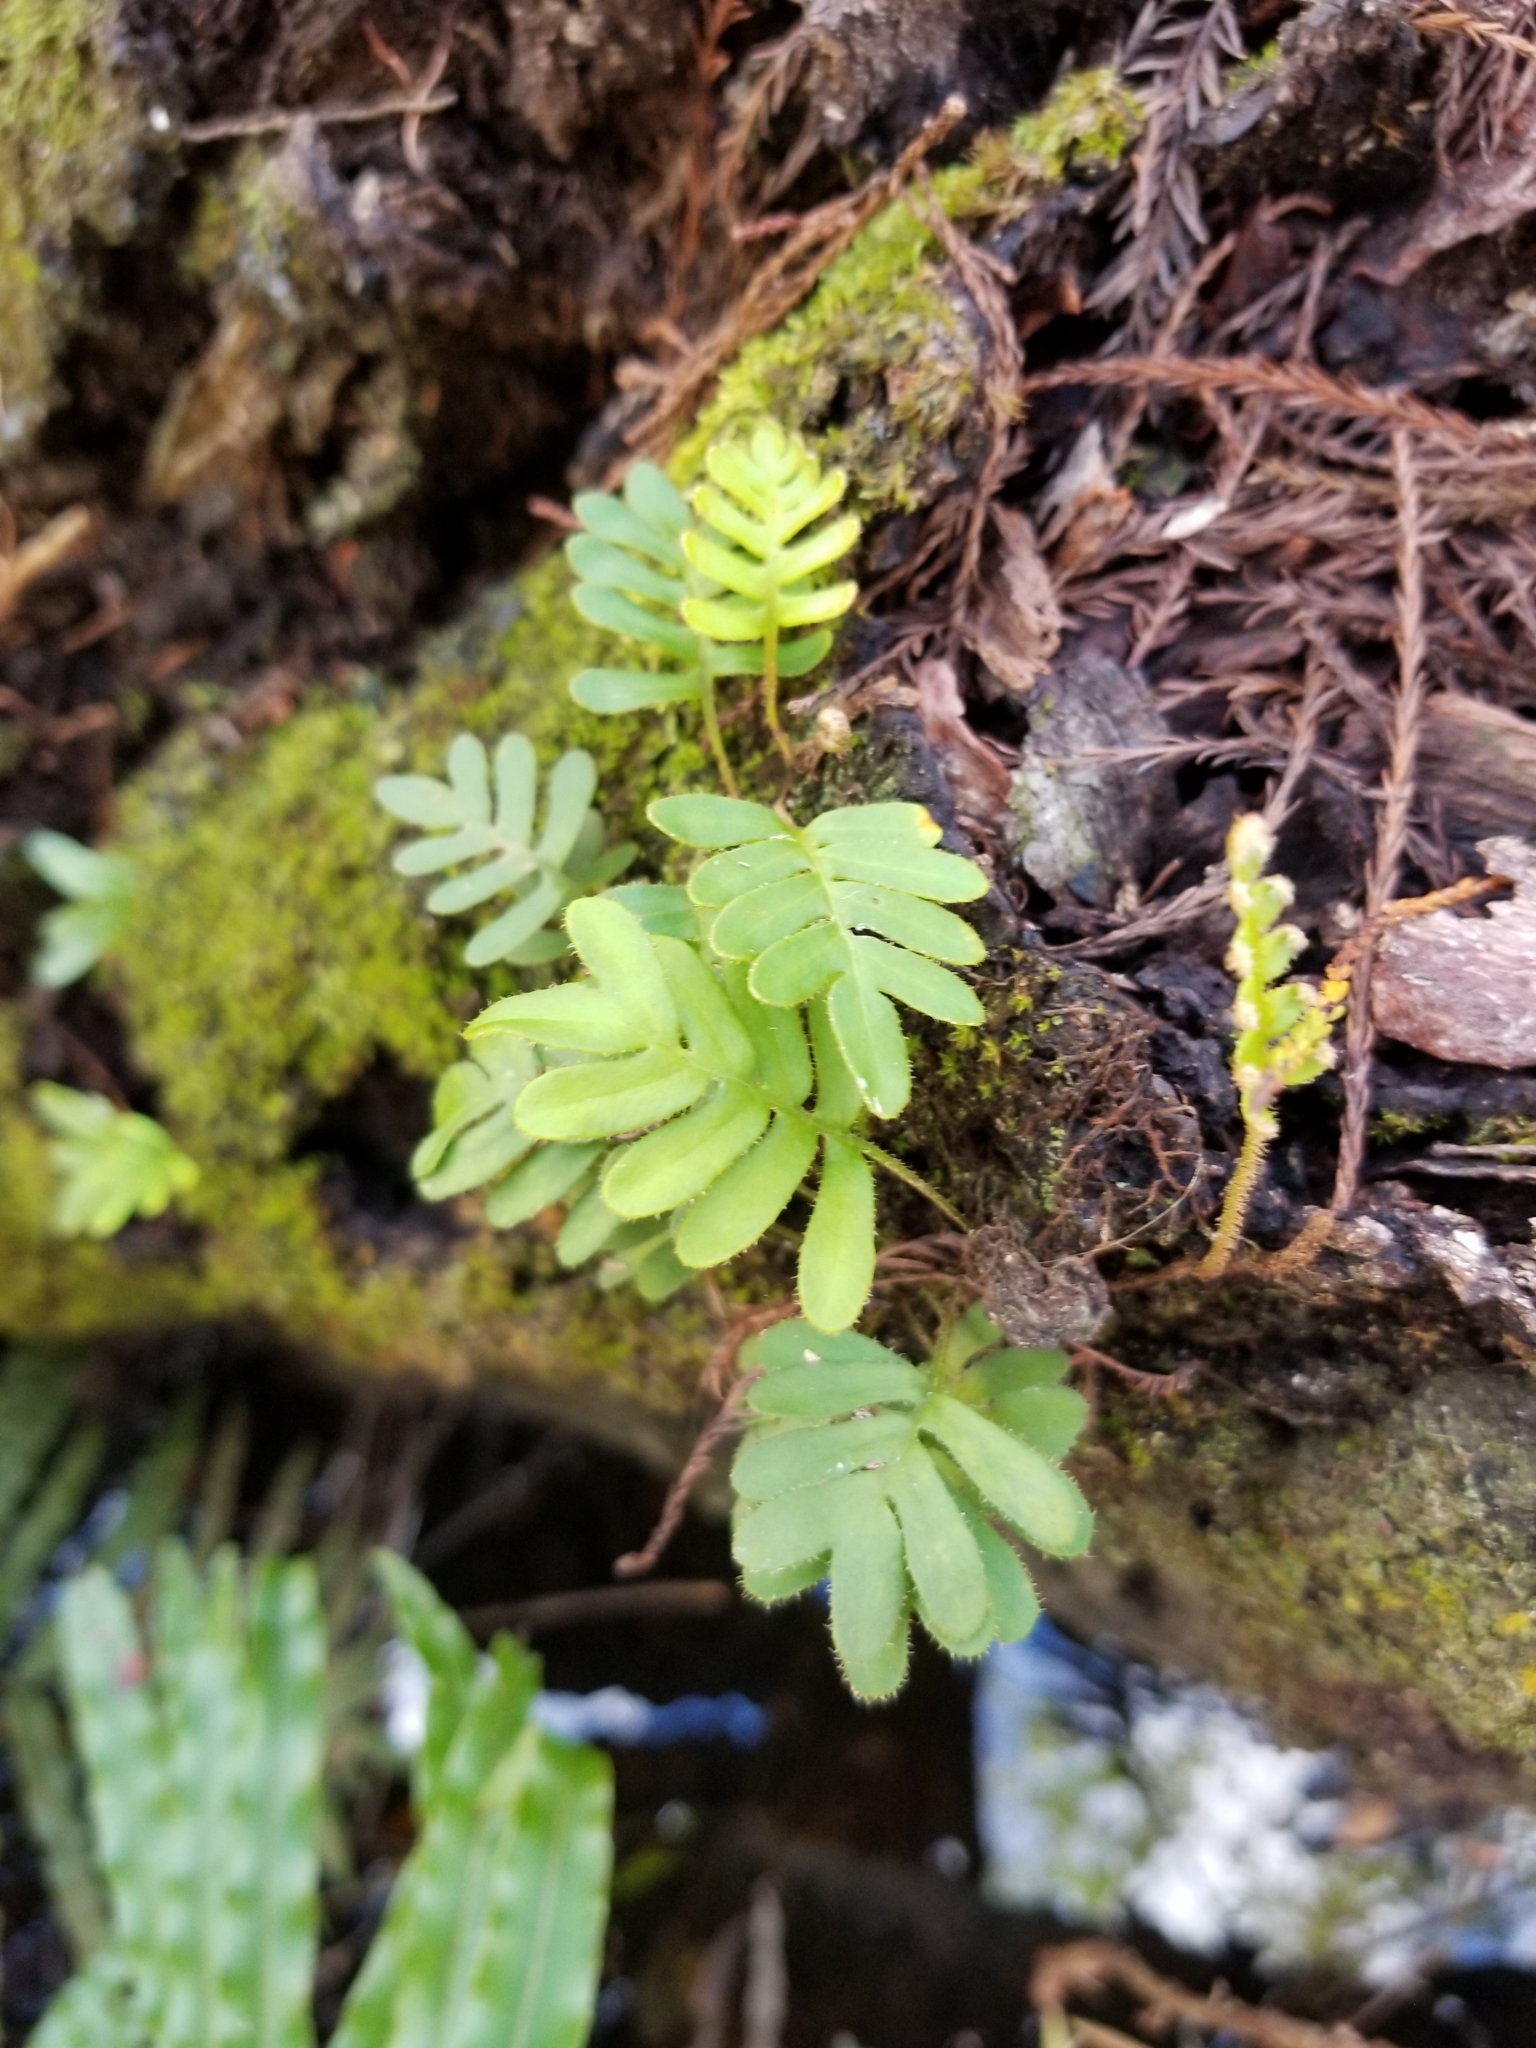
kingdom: Plantae
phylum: Tracheophyta
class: Polypodiopsida
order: Polypodiales
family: Polypodiaceae
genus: Pleopeltis
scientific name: Pleopeltis michauxiana
